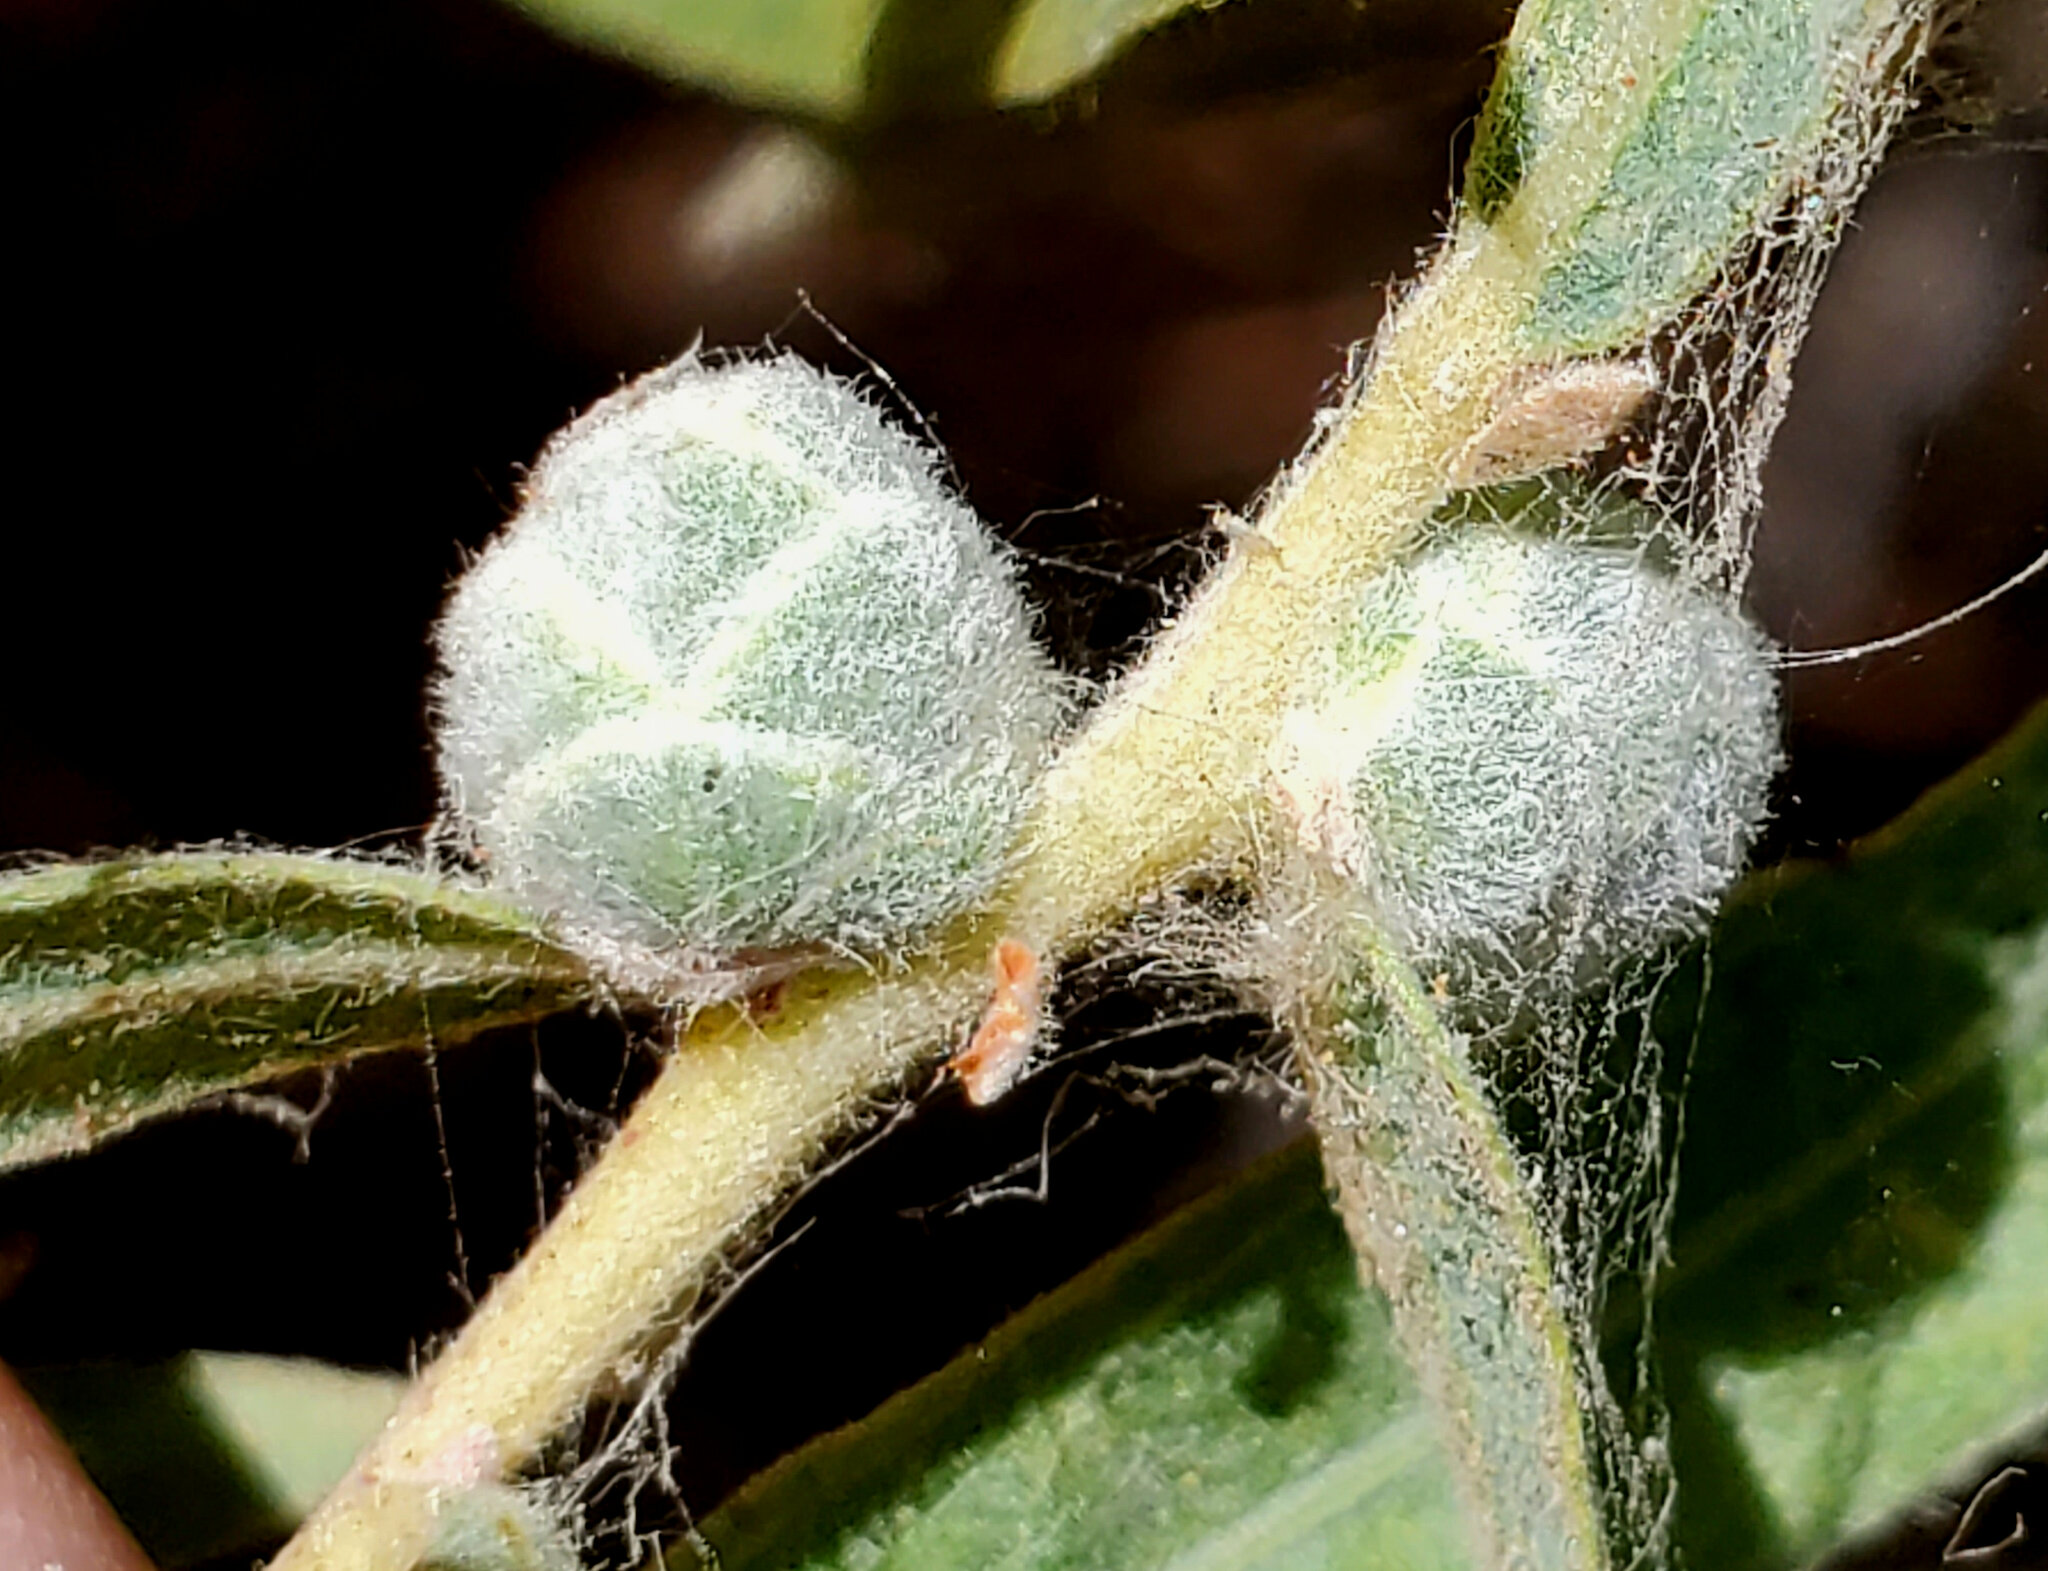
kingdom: Animalia
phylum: Arthropoda
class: Insecta
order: Diptera
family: Cecidomyiidae
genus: Rabdophaga
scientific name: Rabdophaga strobiloides
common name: Willow pinecone gall midge
